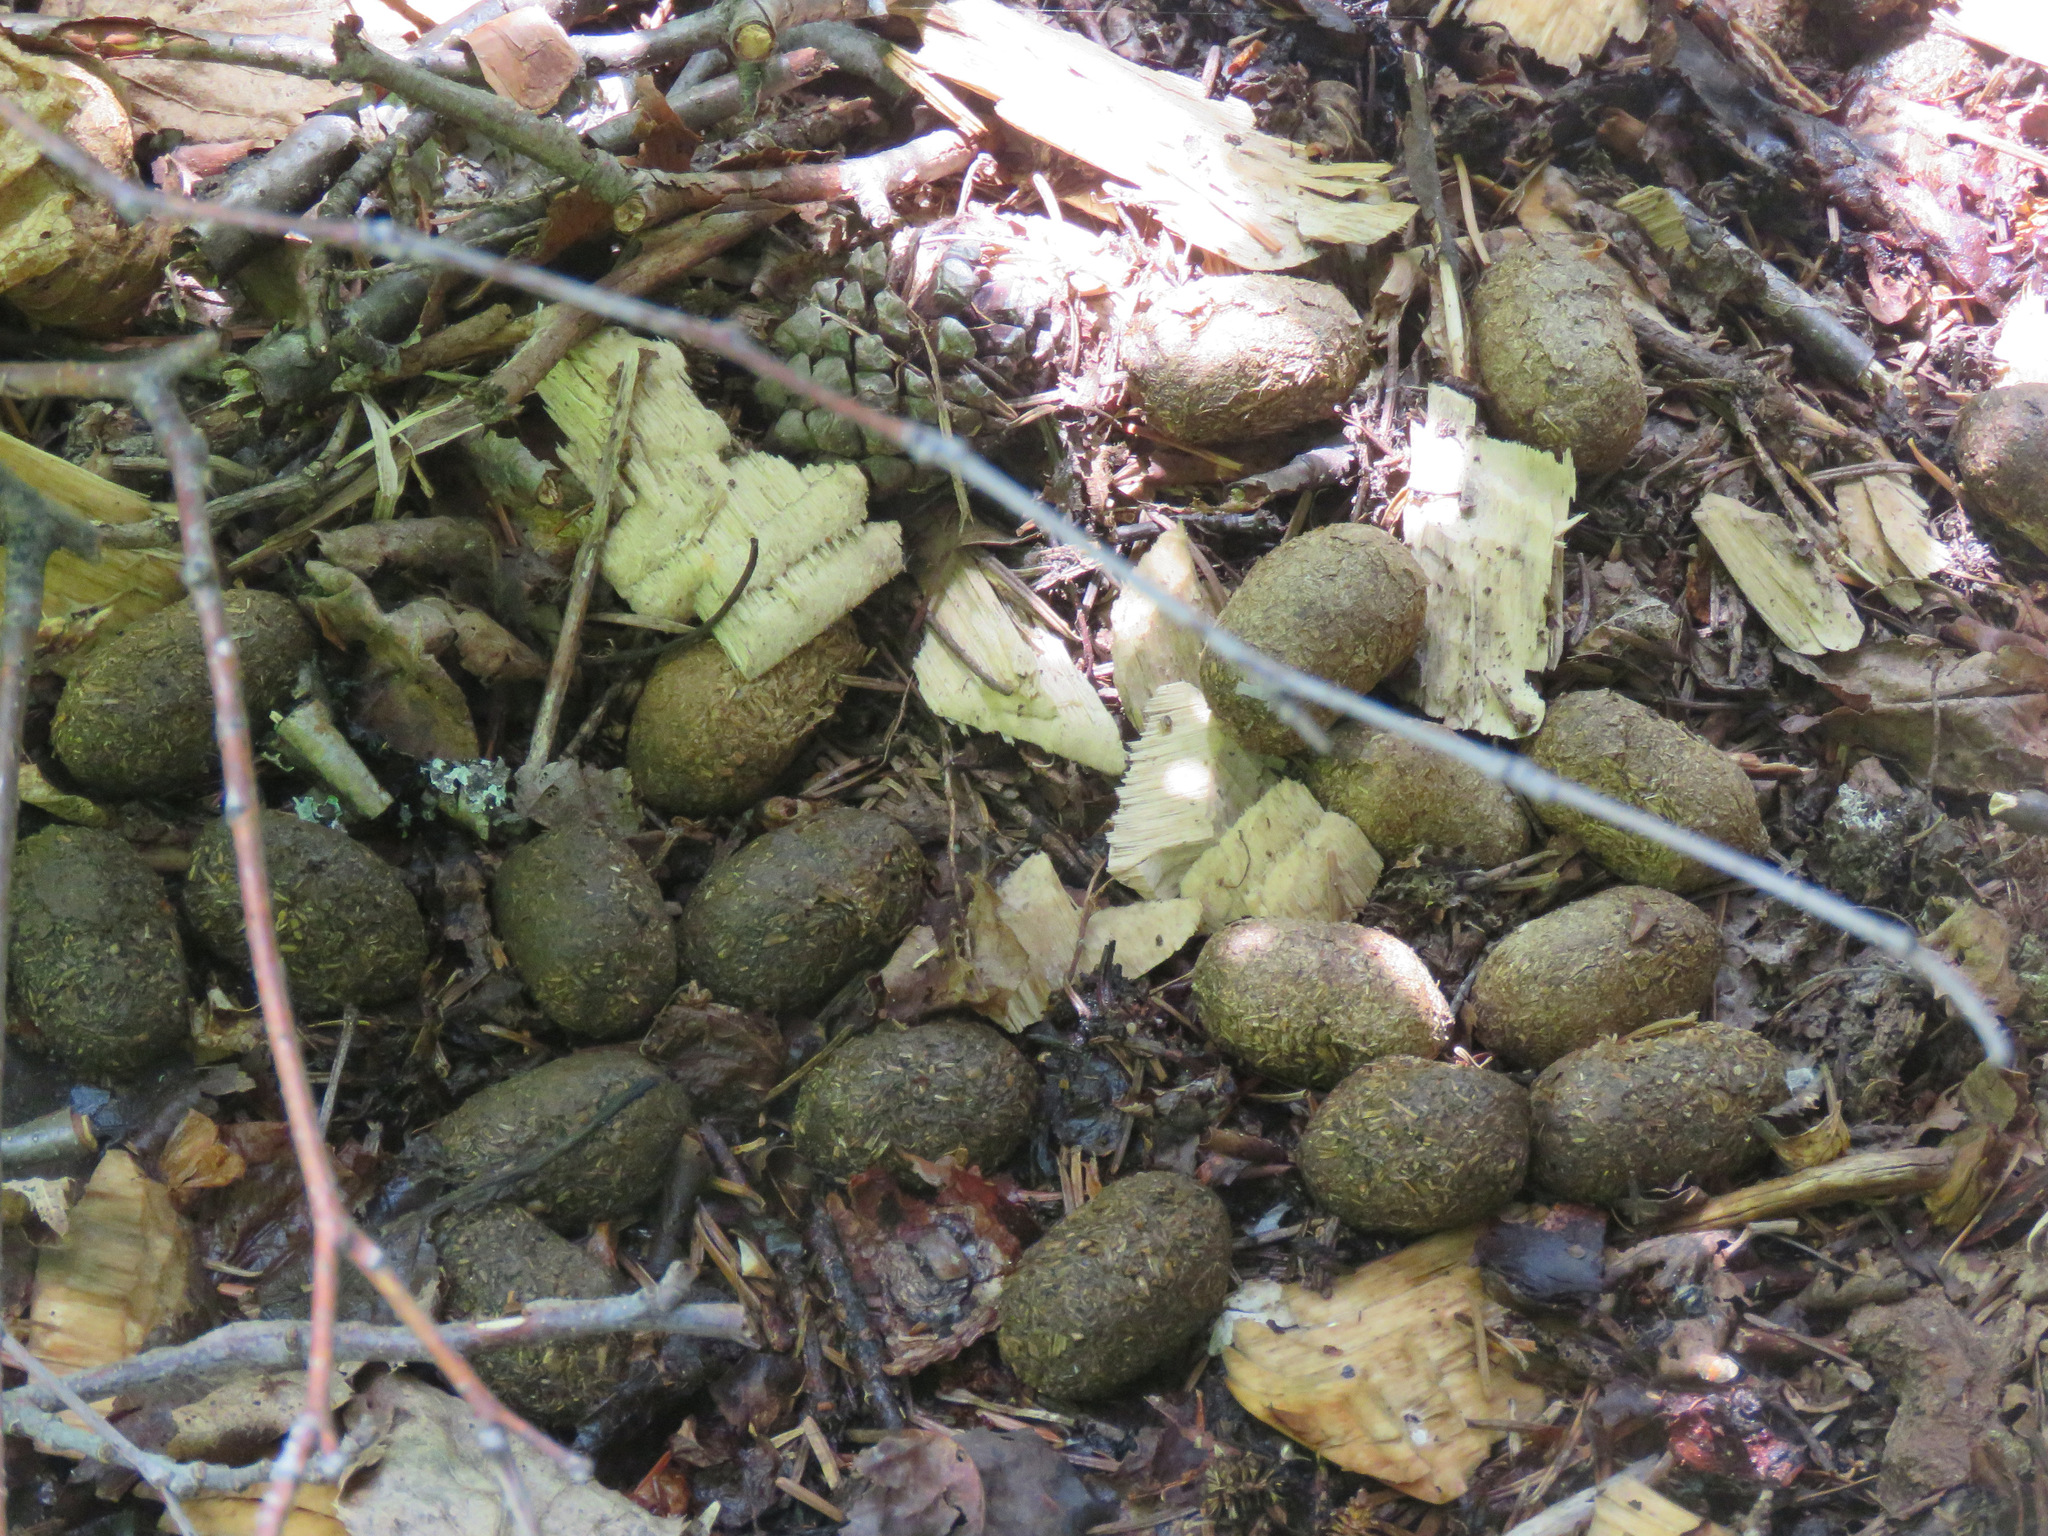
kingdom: Animalia
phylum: Chordata
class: Mammalia
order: Artiodactyla
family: Cervidae
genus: Alces
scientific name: Alces alces
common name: Moose
